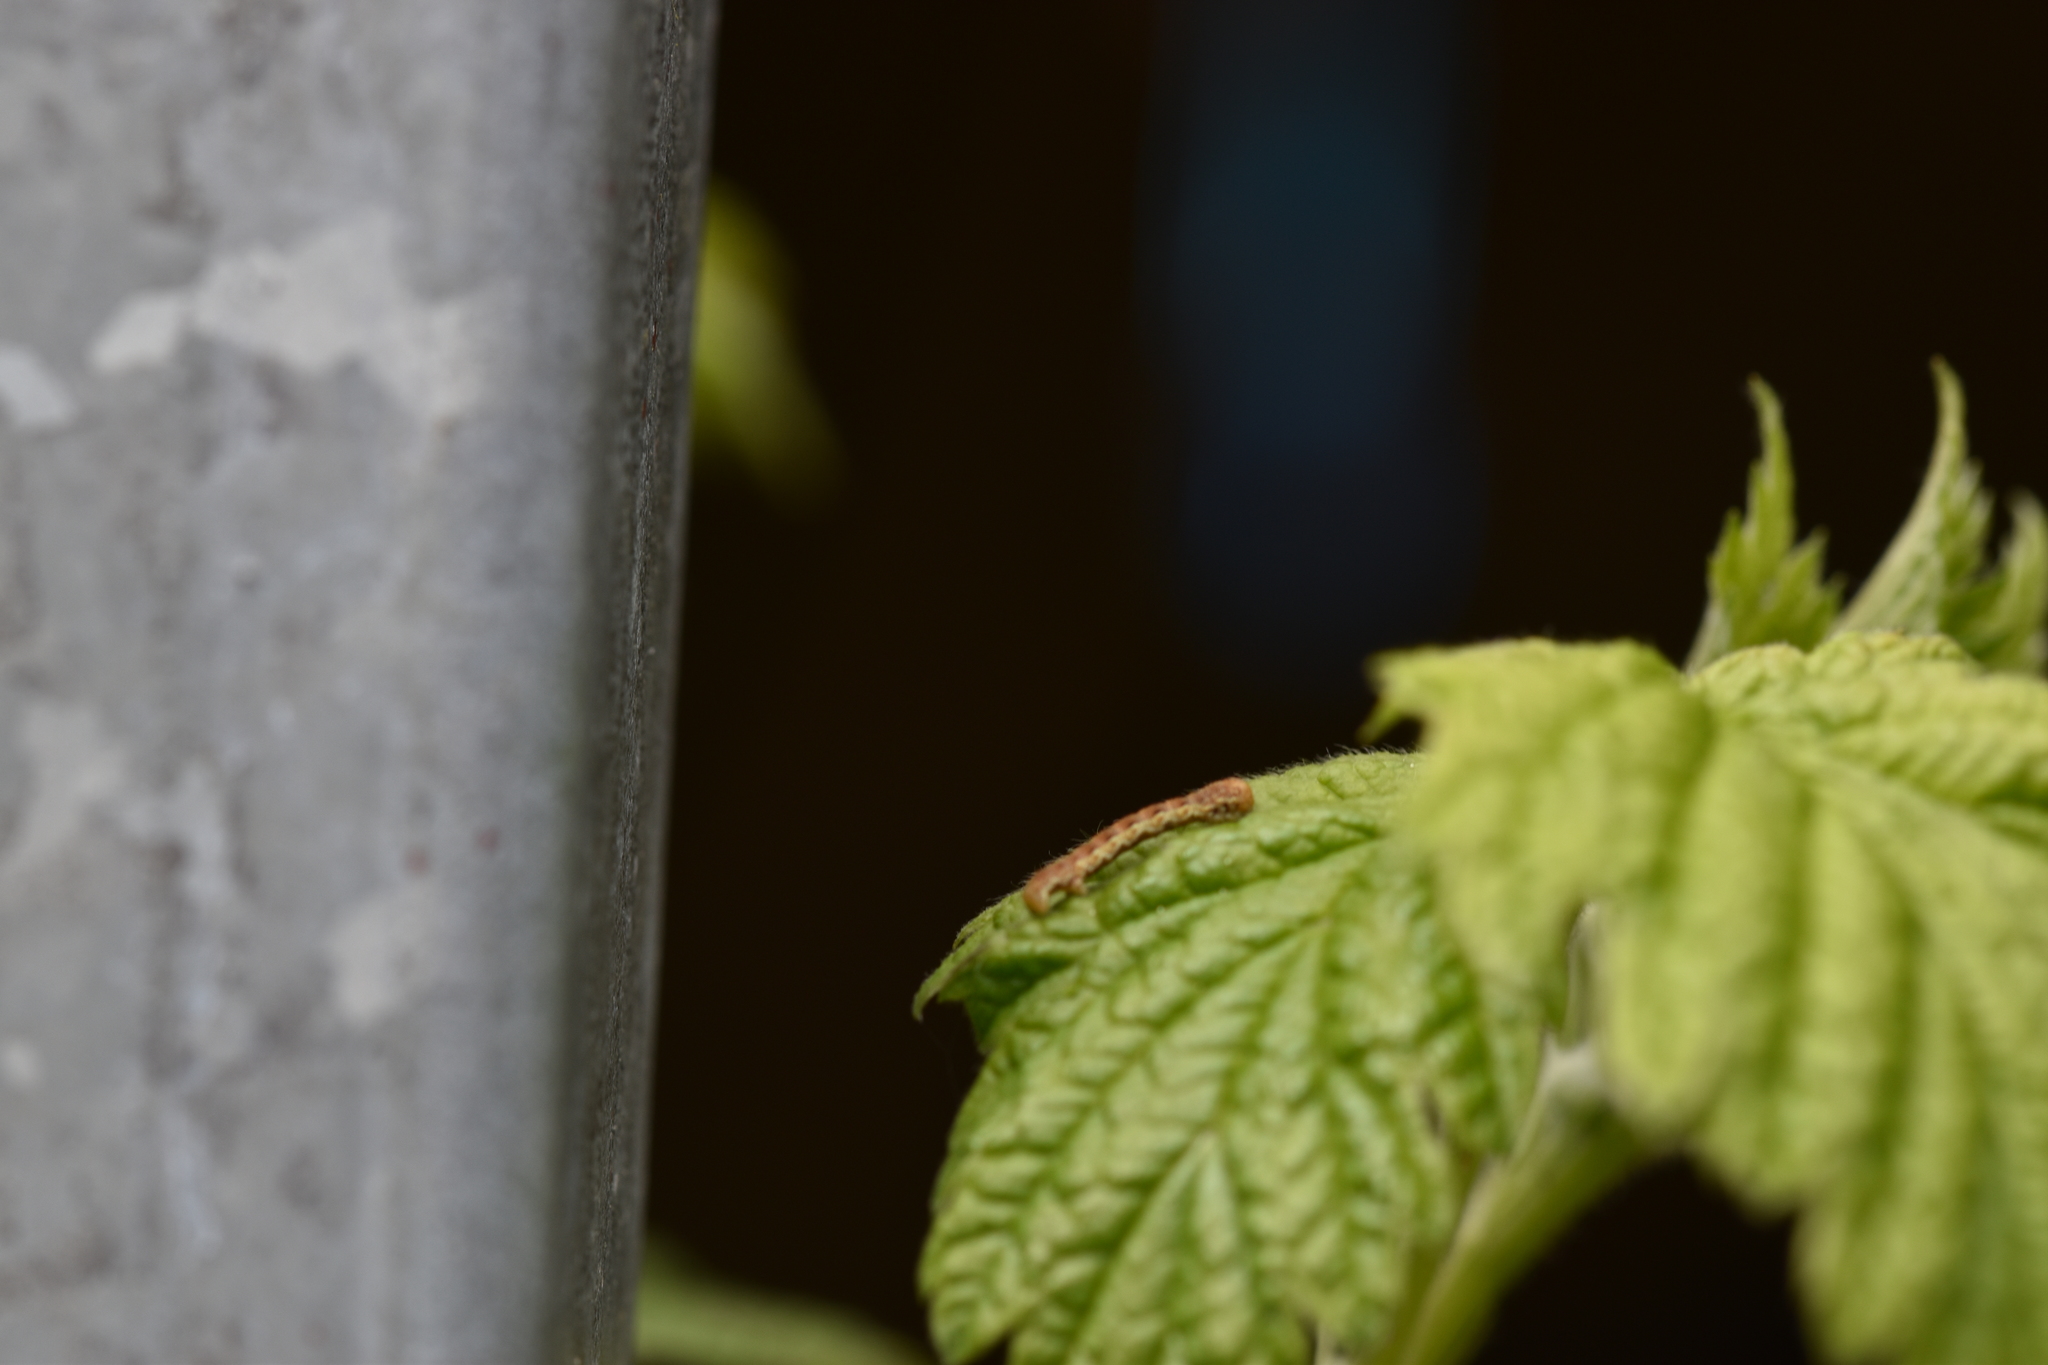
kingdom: Animalia
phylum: Arthropoda
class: Insecta
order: Lepidoptera
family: Geometridae
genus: Erannis
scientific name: Erannis defoliaria
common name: Mottled umber
